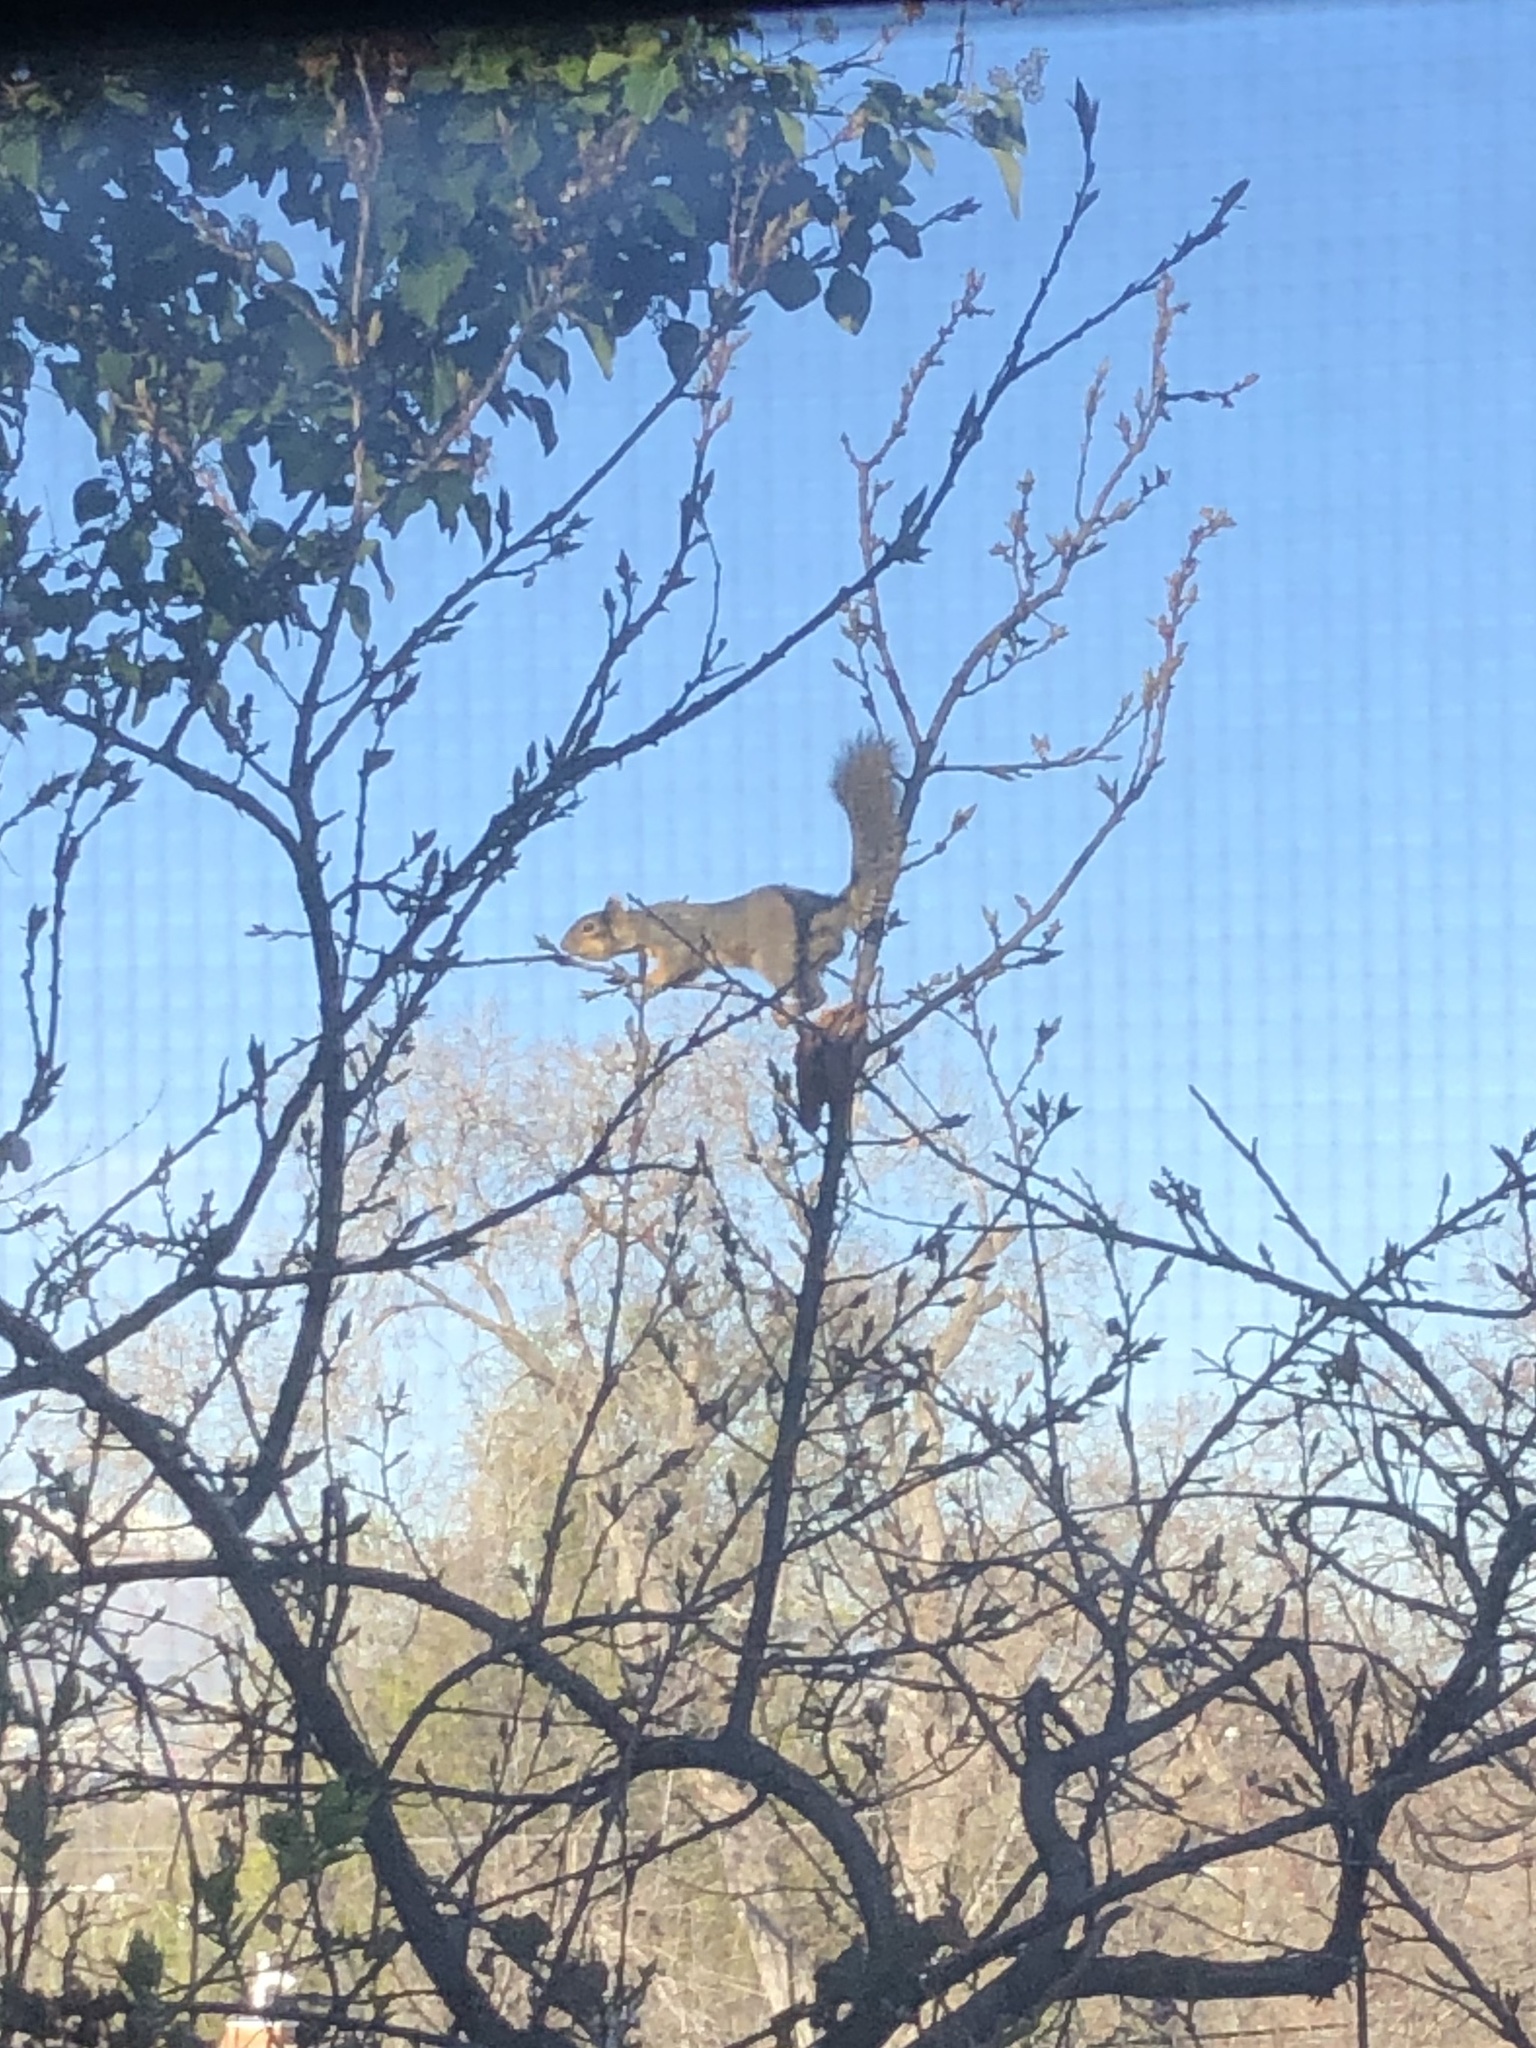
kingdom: Animalia
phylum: Chordata
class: Mammalia
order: Rodentia
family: Sciuridae
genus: Sciurus
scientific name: Sciurus niger
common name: Fox squirrel
